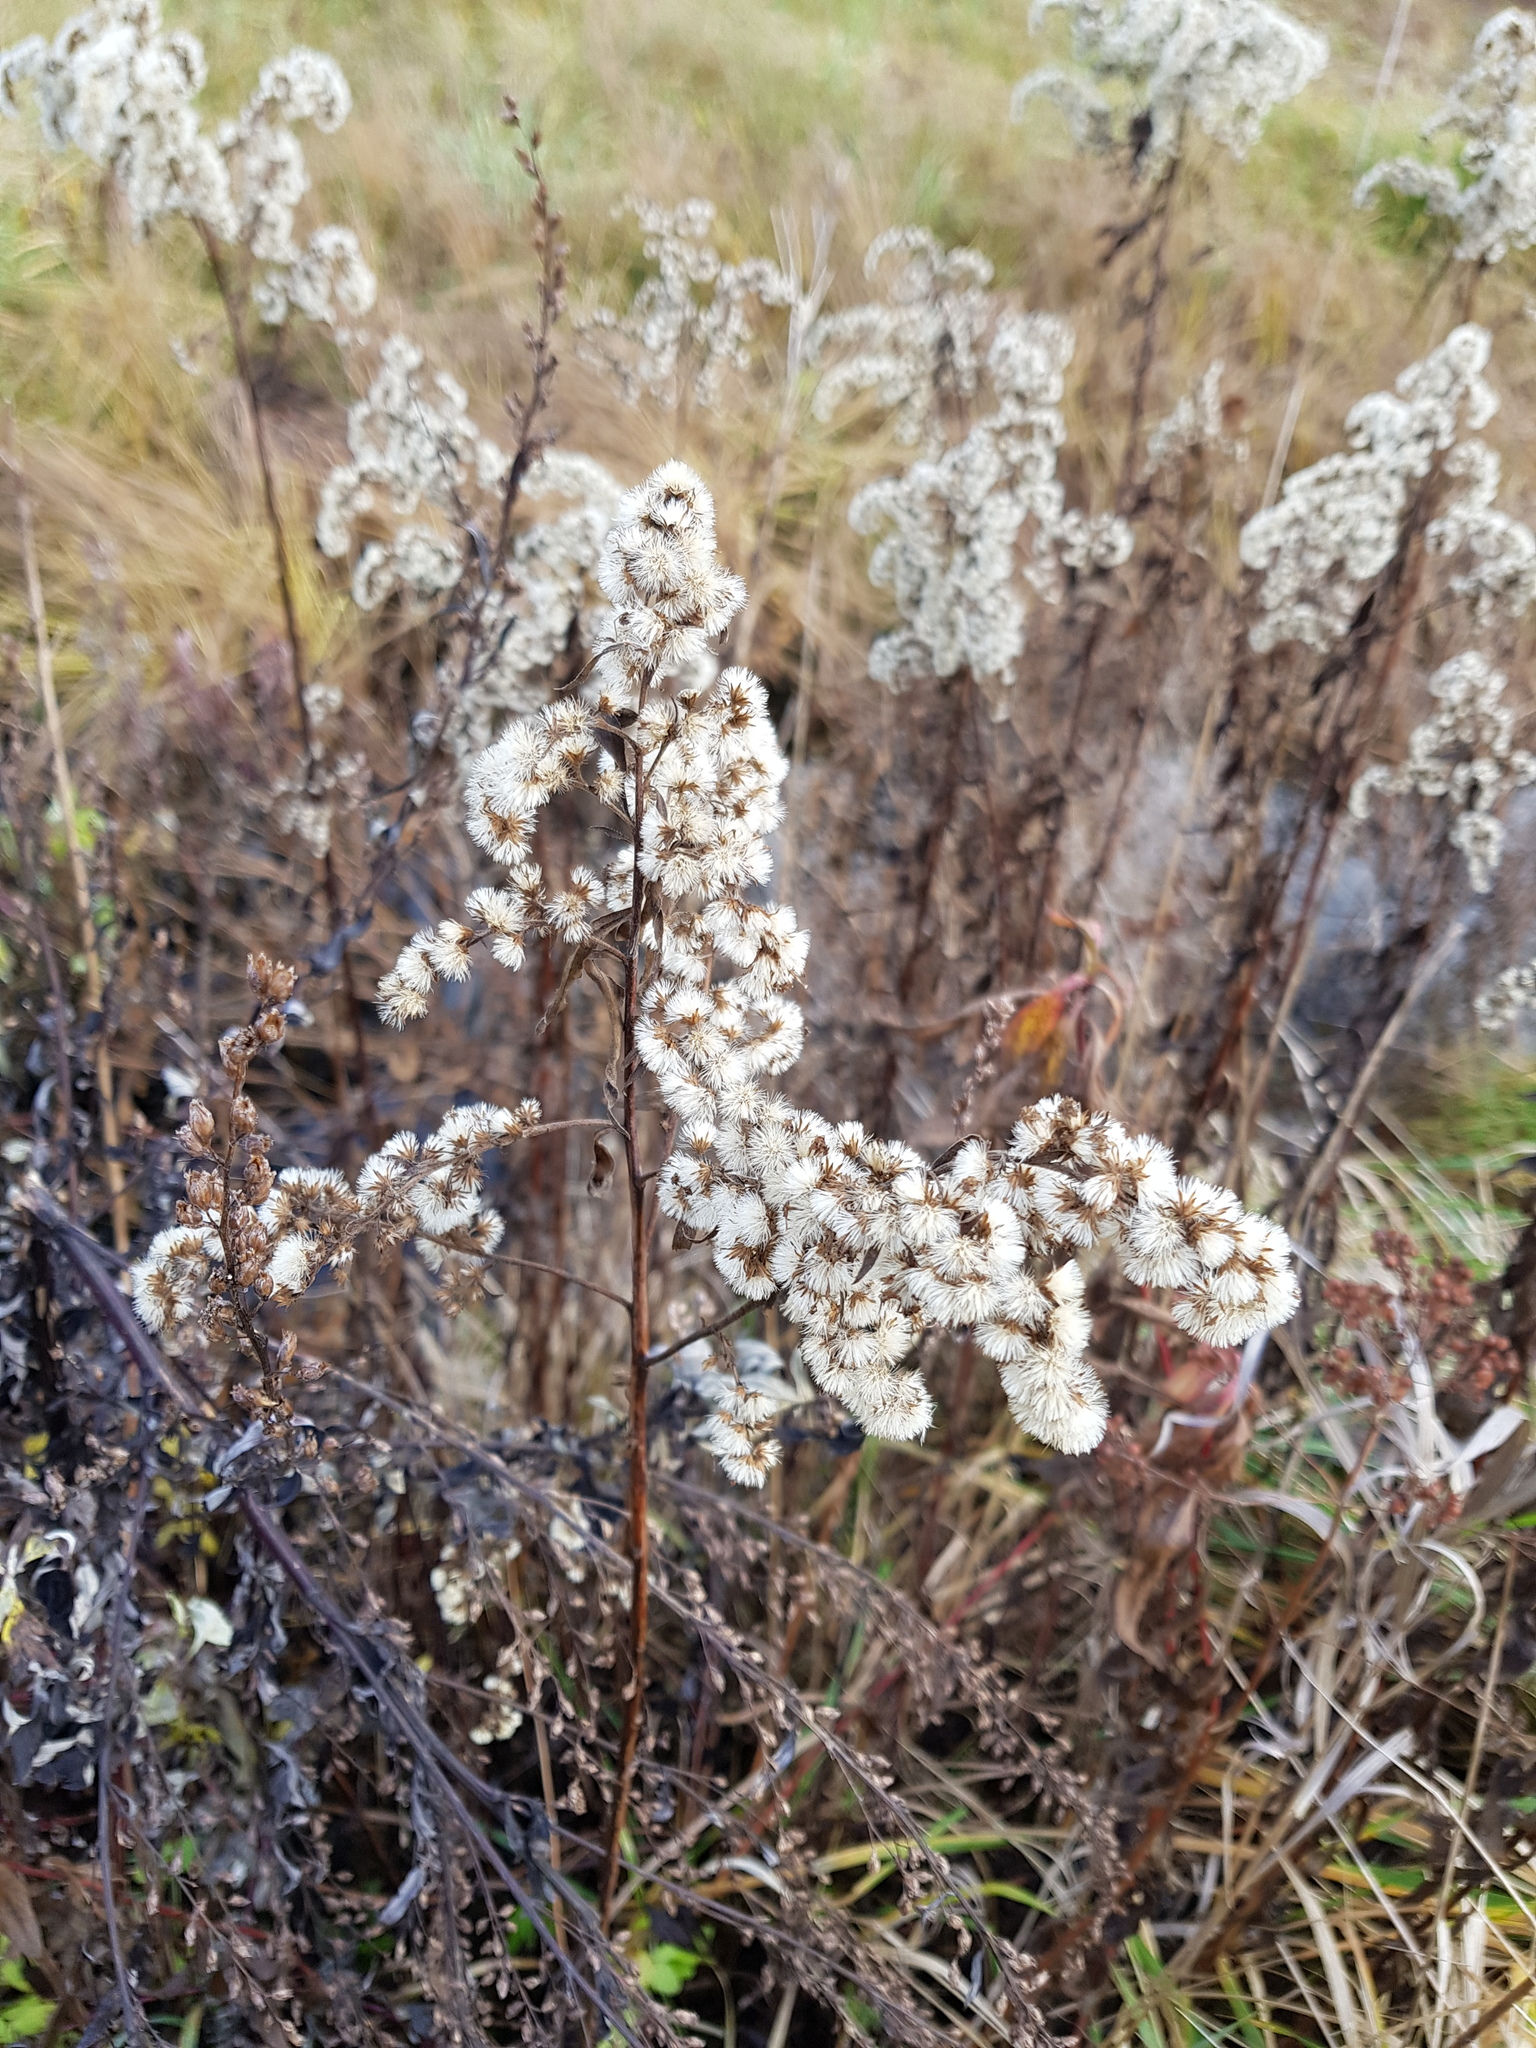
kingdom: Plantae
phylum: Tracheophyta
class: Magnoliopsida
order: Asterales
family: Asteraceae
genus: Solidago
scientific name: Solidago gigantea
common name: Giant goldenrod
